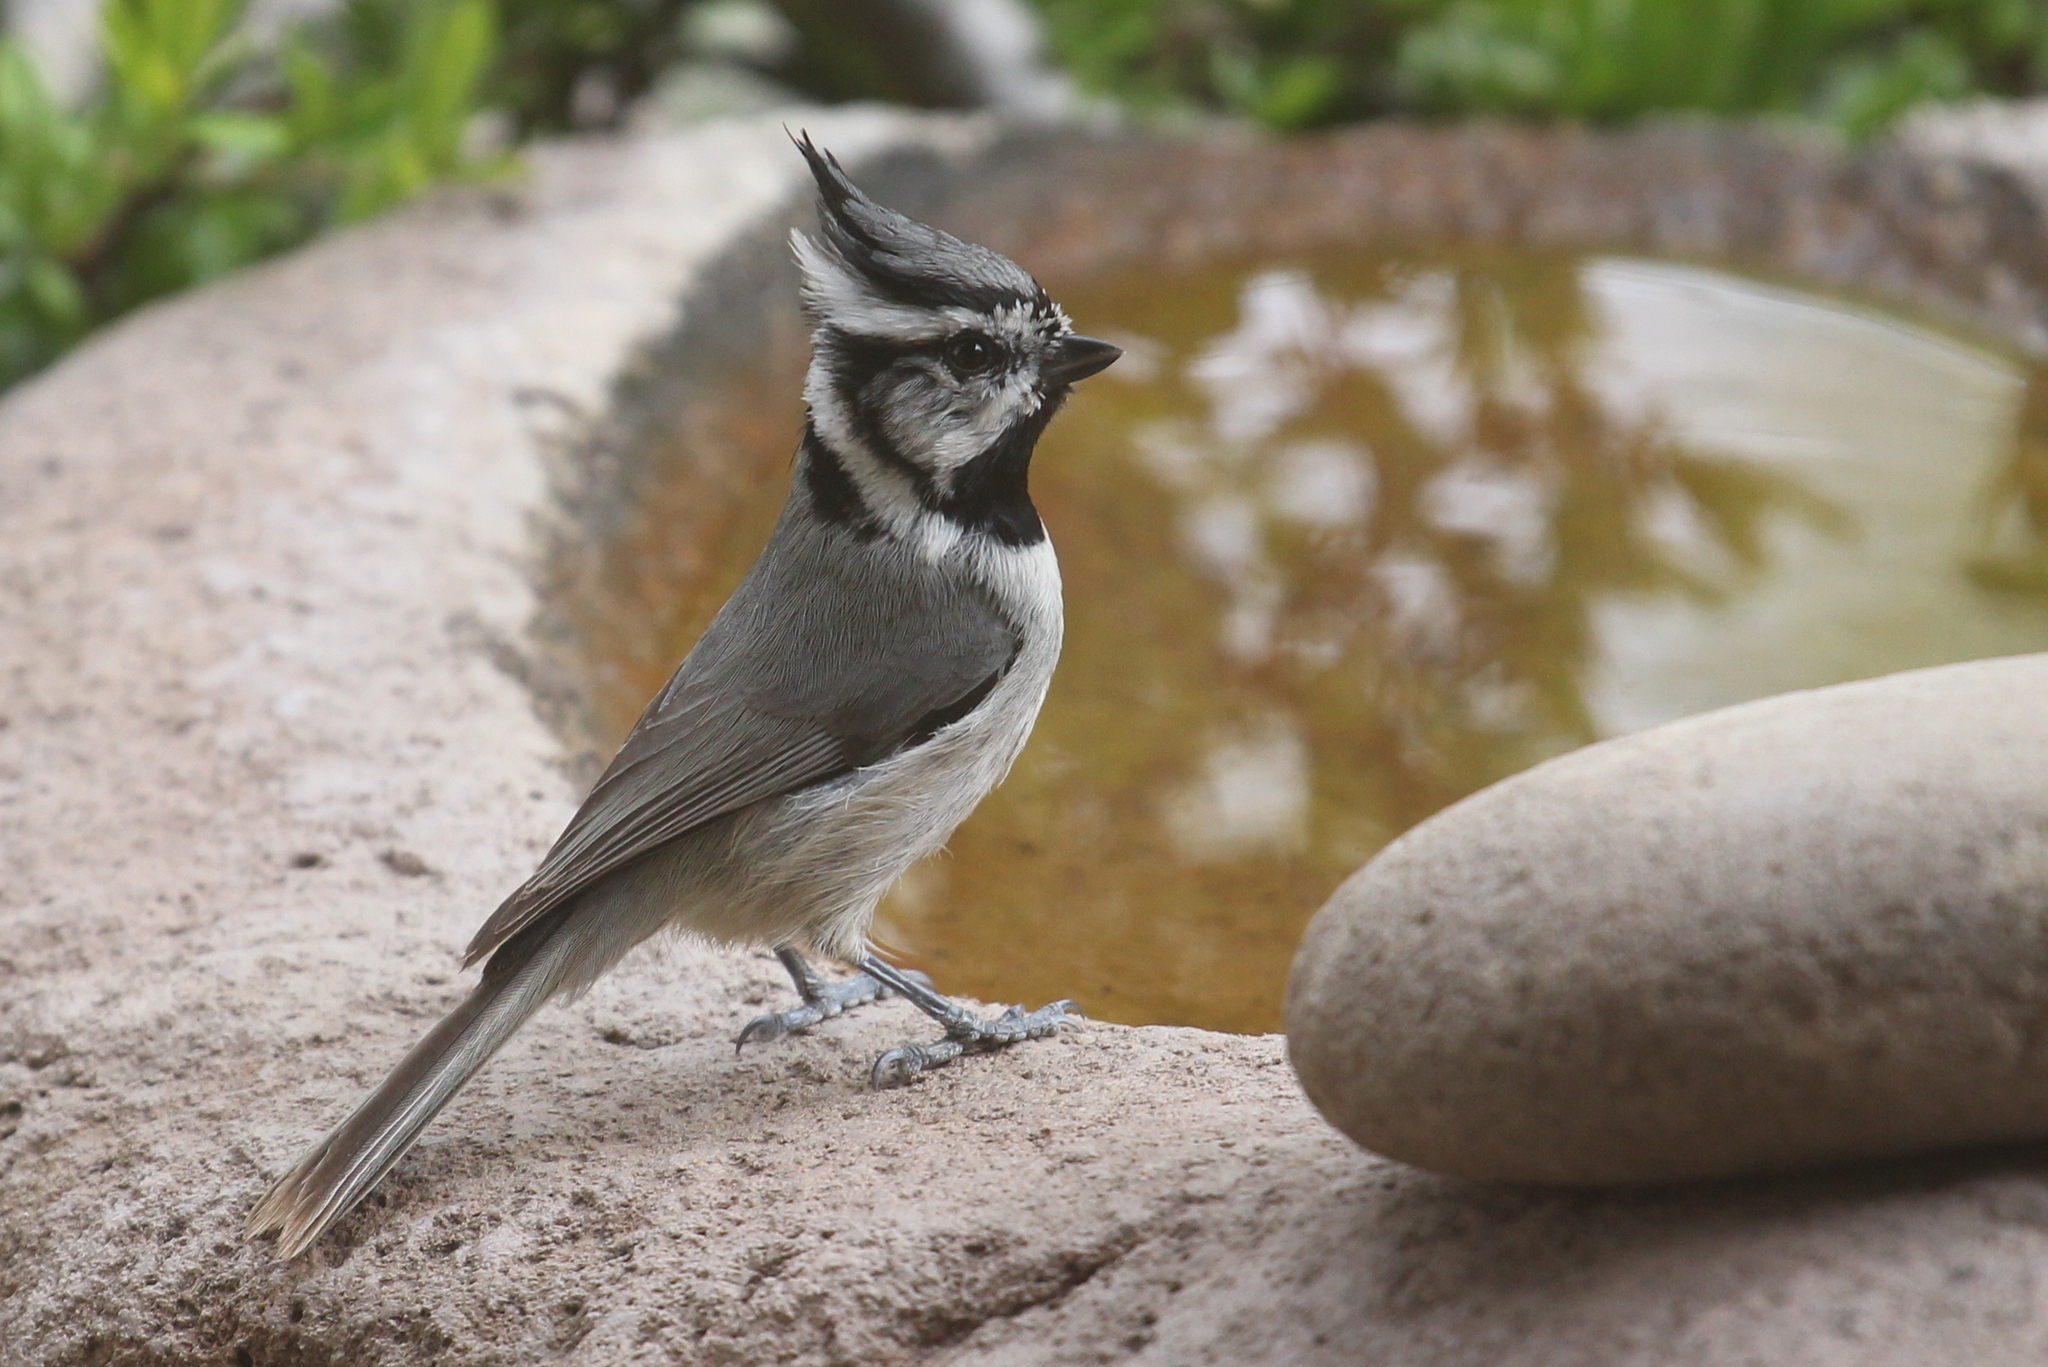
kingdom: Animalia
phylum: Chordata
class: Aves
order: Passeriformes
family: Paridae
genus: Baeolophus
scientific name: Baeolophus wollweberi
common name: Bridled titmouse
